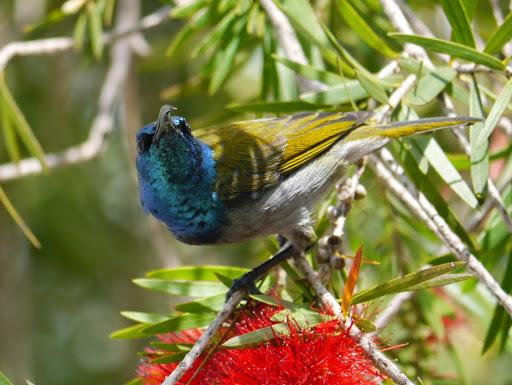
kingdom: Animalia
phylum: Chordata
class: Aves
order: Passeriformes
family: Nectariniidae
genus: Cyanomitra
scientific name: Cyanomitra verticalis
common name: Green-headed sunbird
